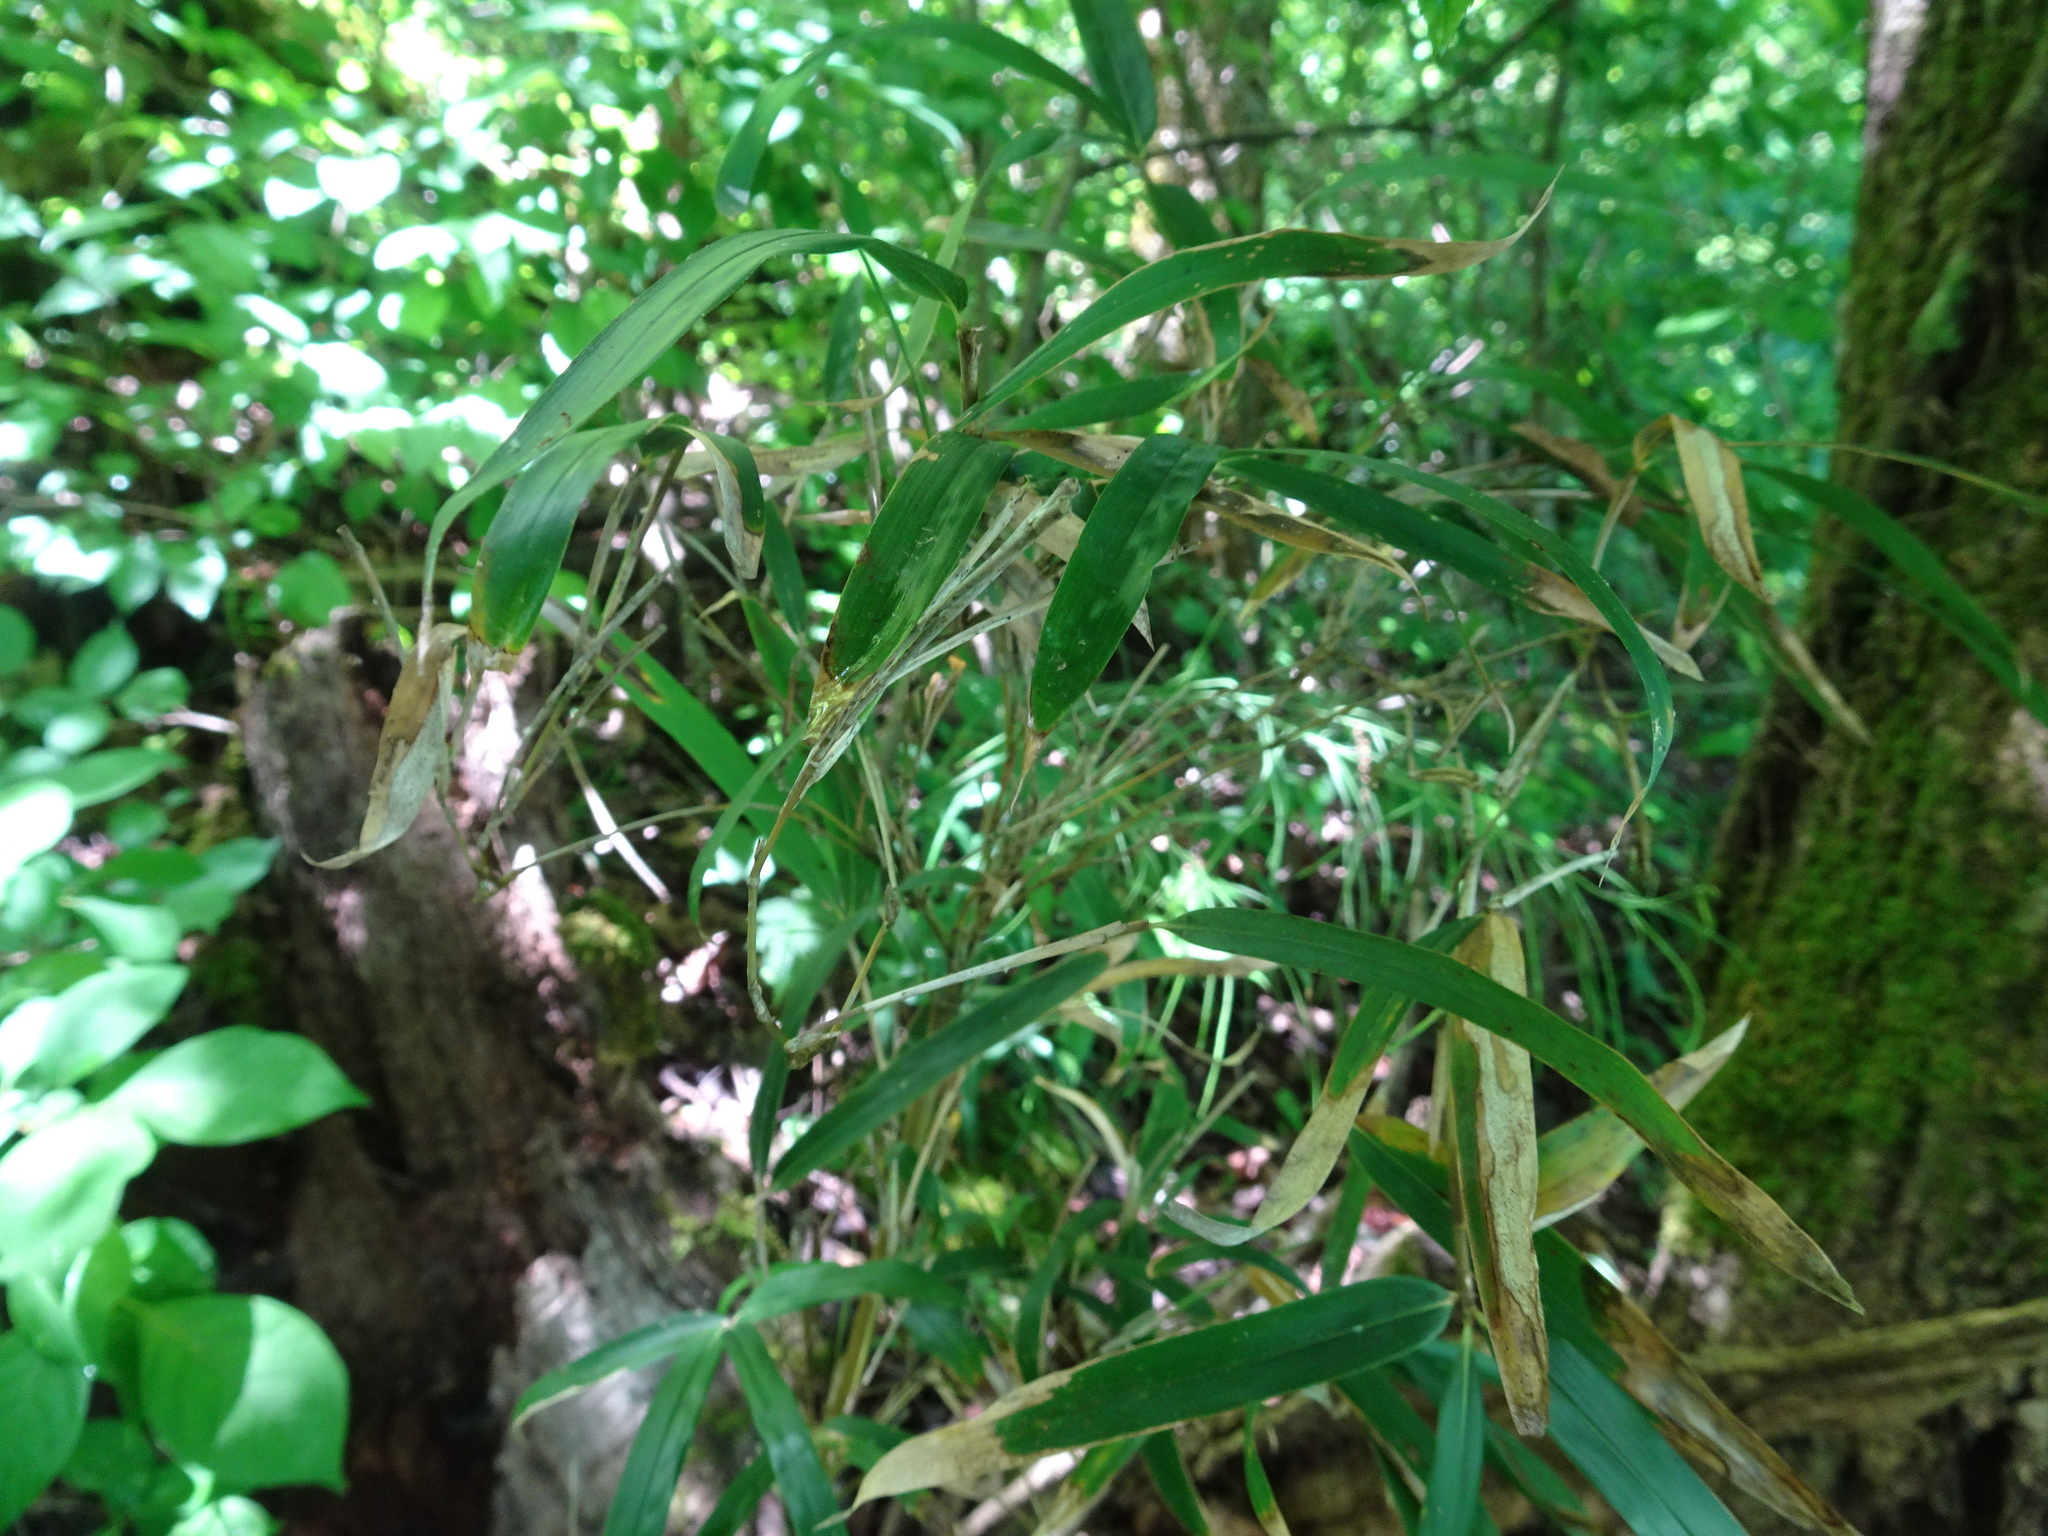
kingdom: Plantae
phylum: Tracheophyta
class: Liliopsida
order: Poales
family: Poaceae
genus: Arundinaria
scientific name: Arundinaria gigantea
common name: Giant cane
